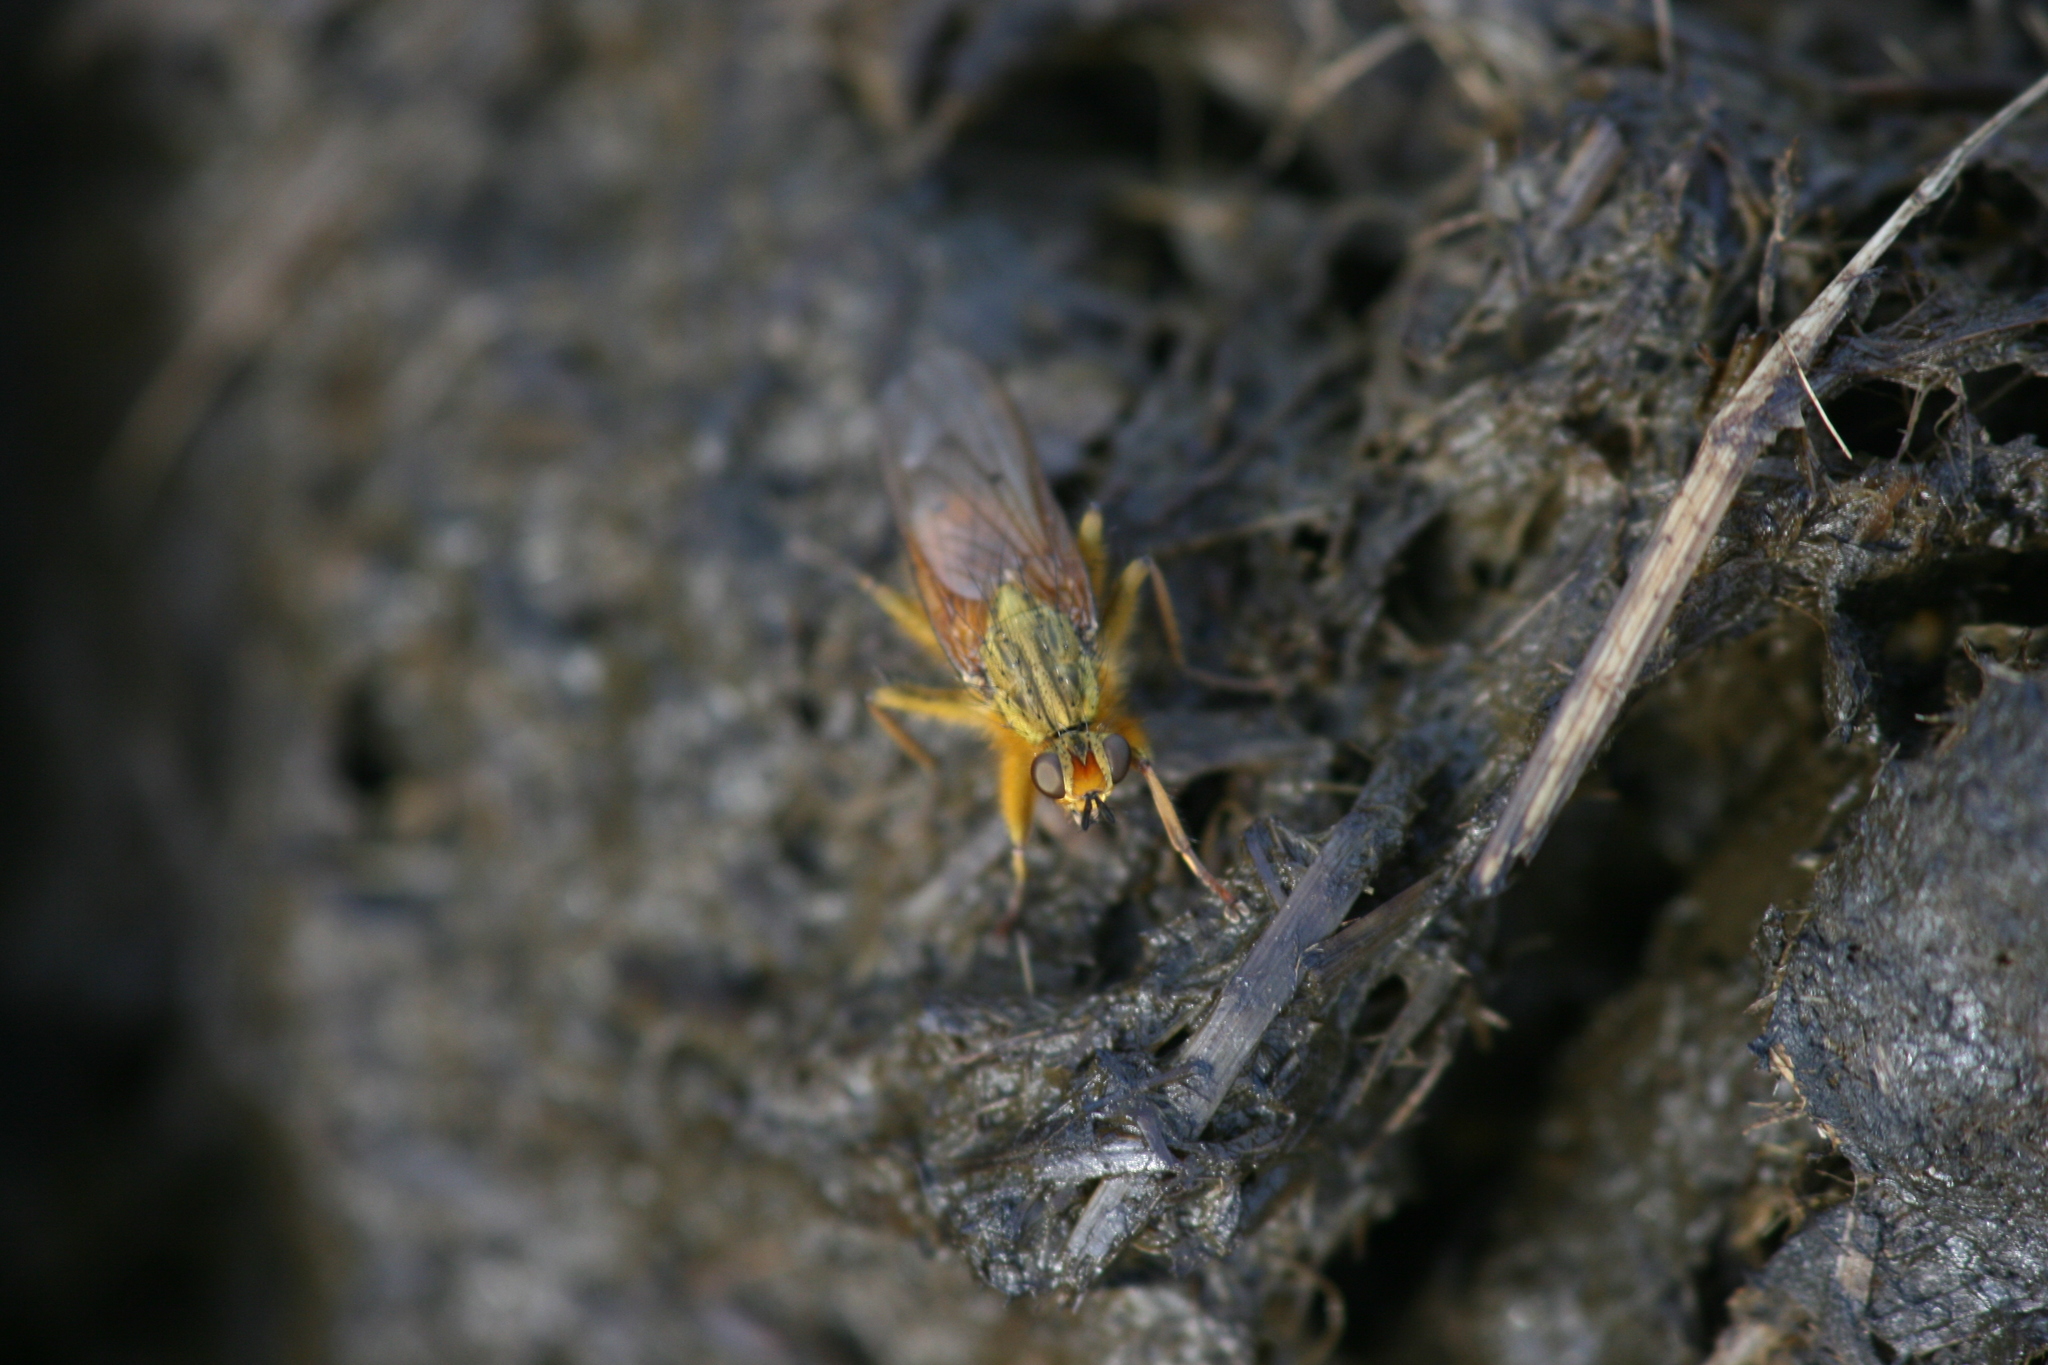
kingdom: Animalia
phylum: Arthropoda
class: Insecta
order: Diptera
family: Scathophagidae
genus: Scathophaga
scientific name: Scathophaga stercoraria
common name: Yellow dung fly
